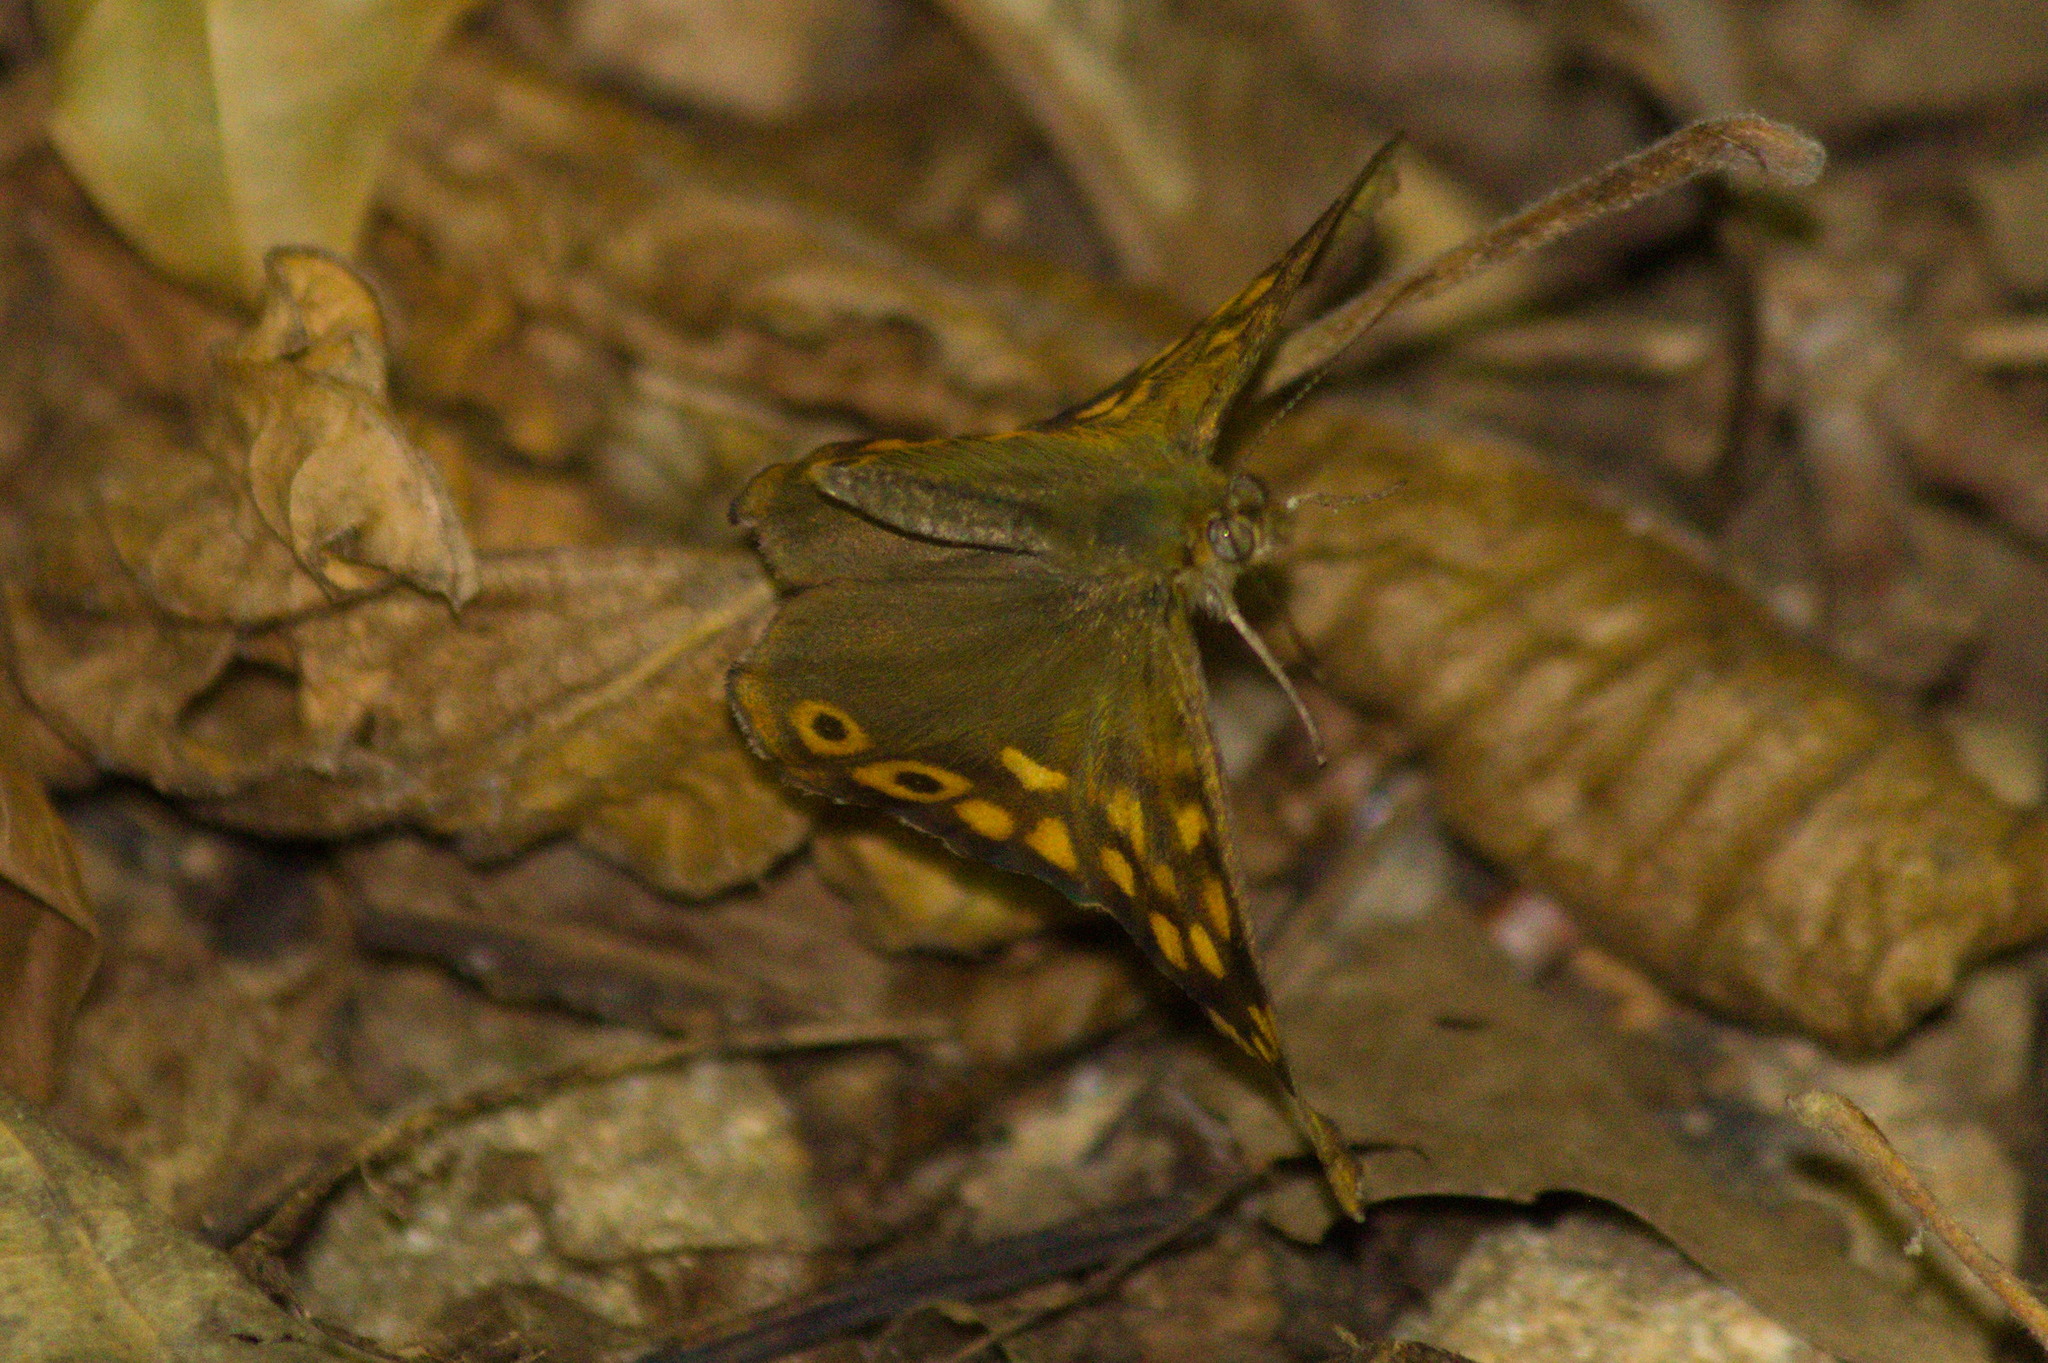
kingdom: Animalia
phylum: Arthropoda
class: Insecta
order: Lepidoptera
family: Nymphalidae
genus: Pararge
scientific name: Pararge aegeria
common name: Speckled wood
